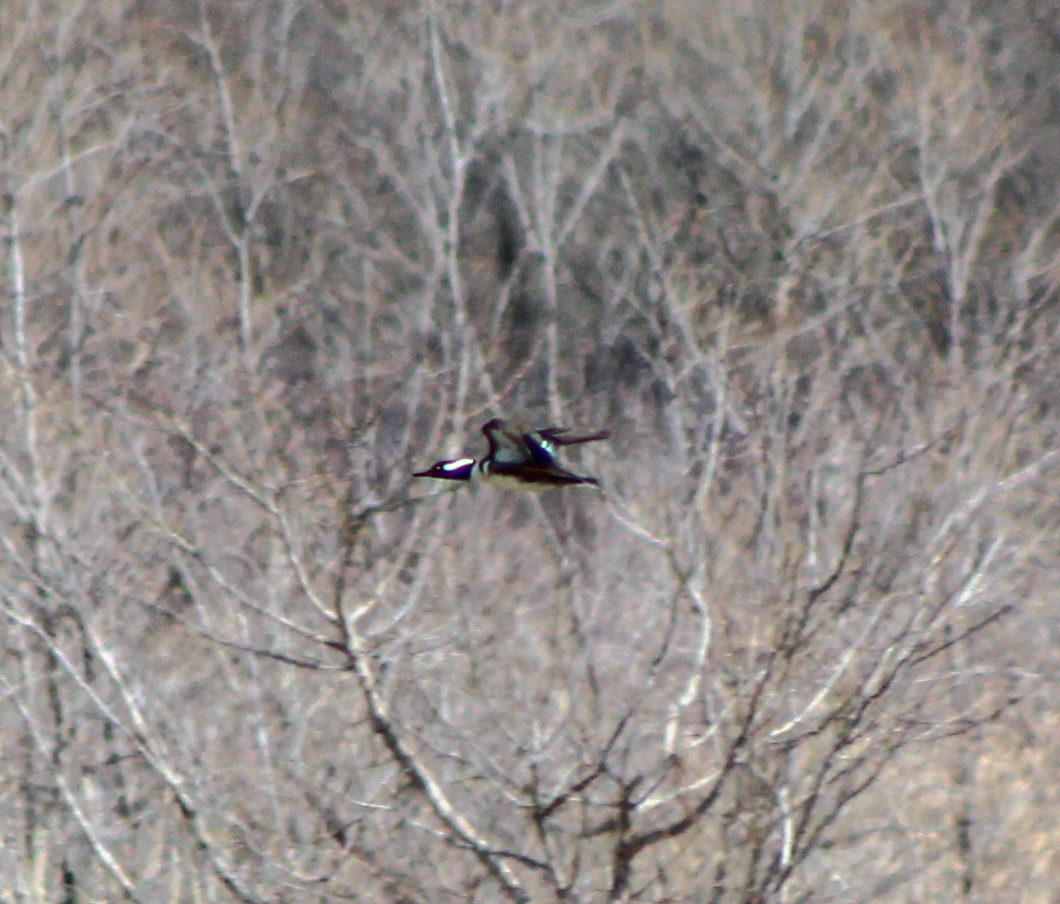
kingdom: Animalia
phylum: Chordata
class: Aves
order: Anseriformes
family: Anatidae
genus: Lophodytes
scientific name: Lophodytes cucullatus
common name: Hooded merganser
